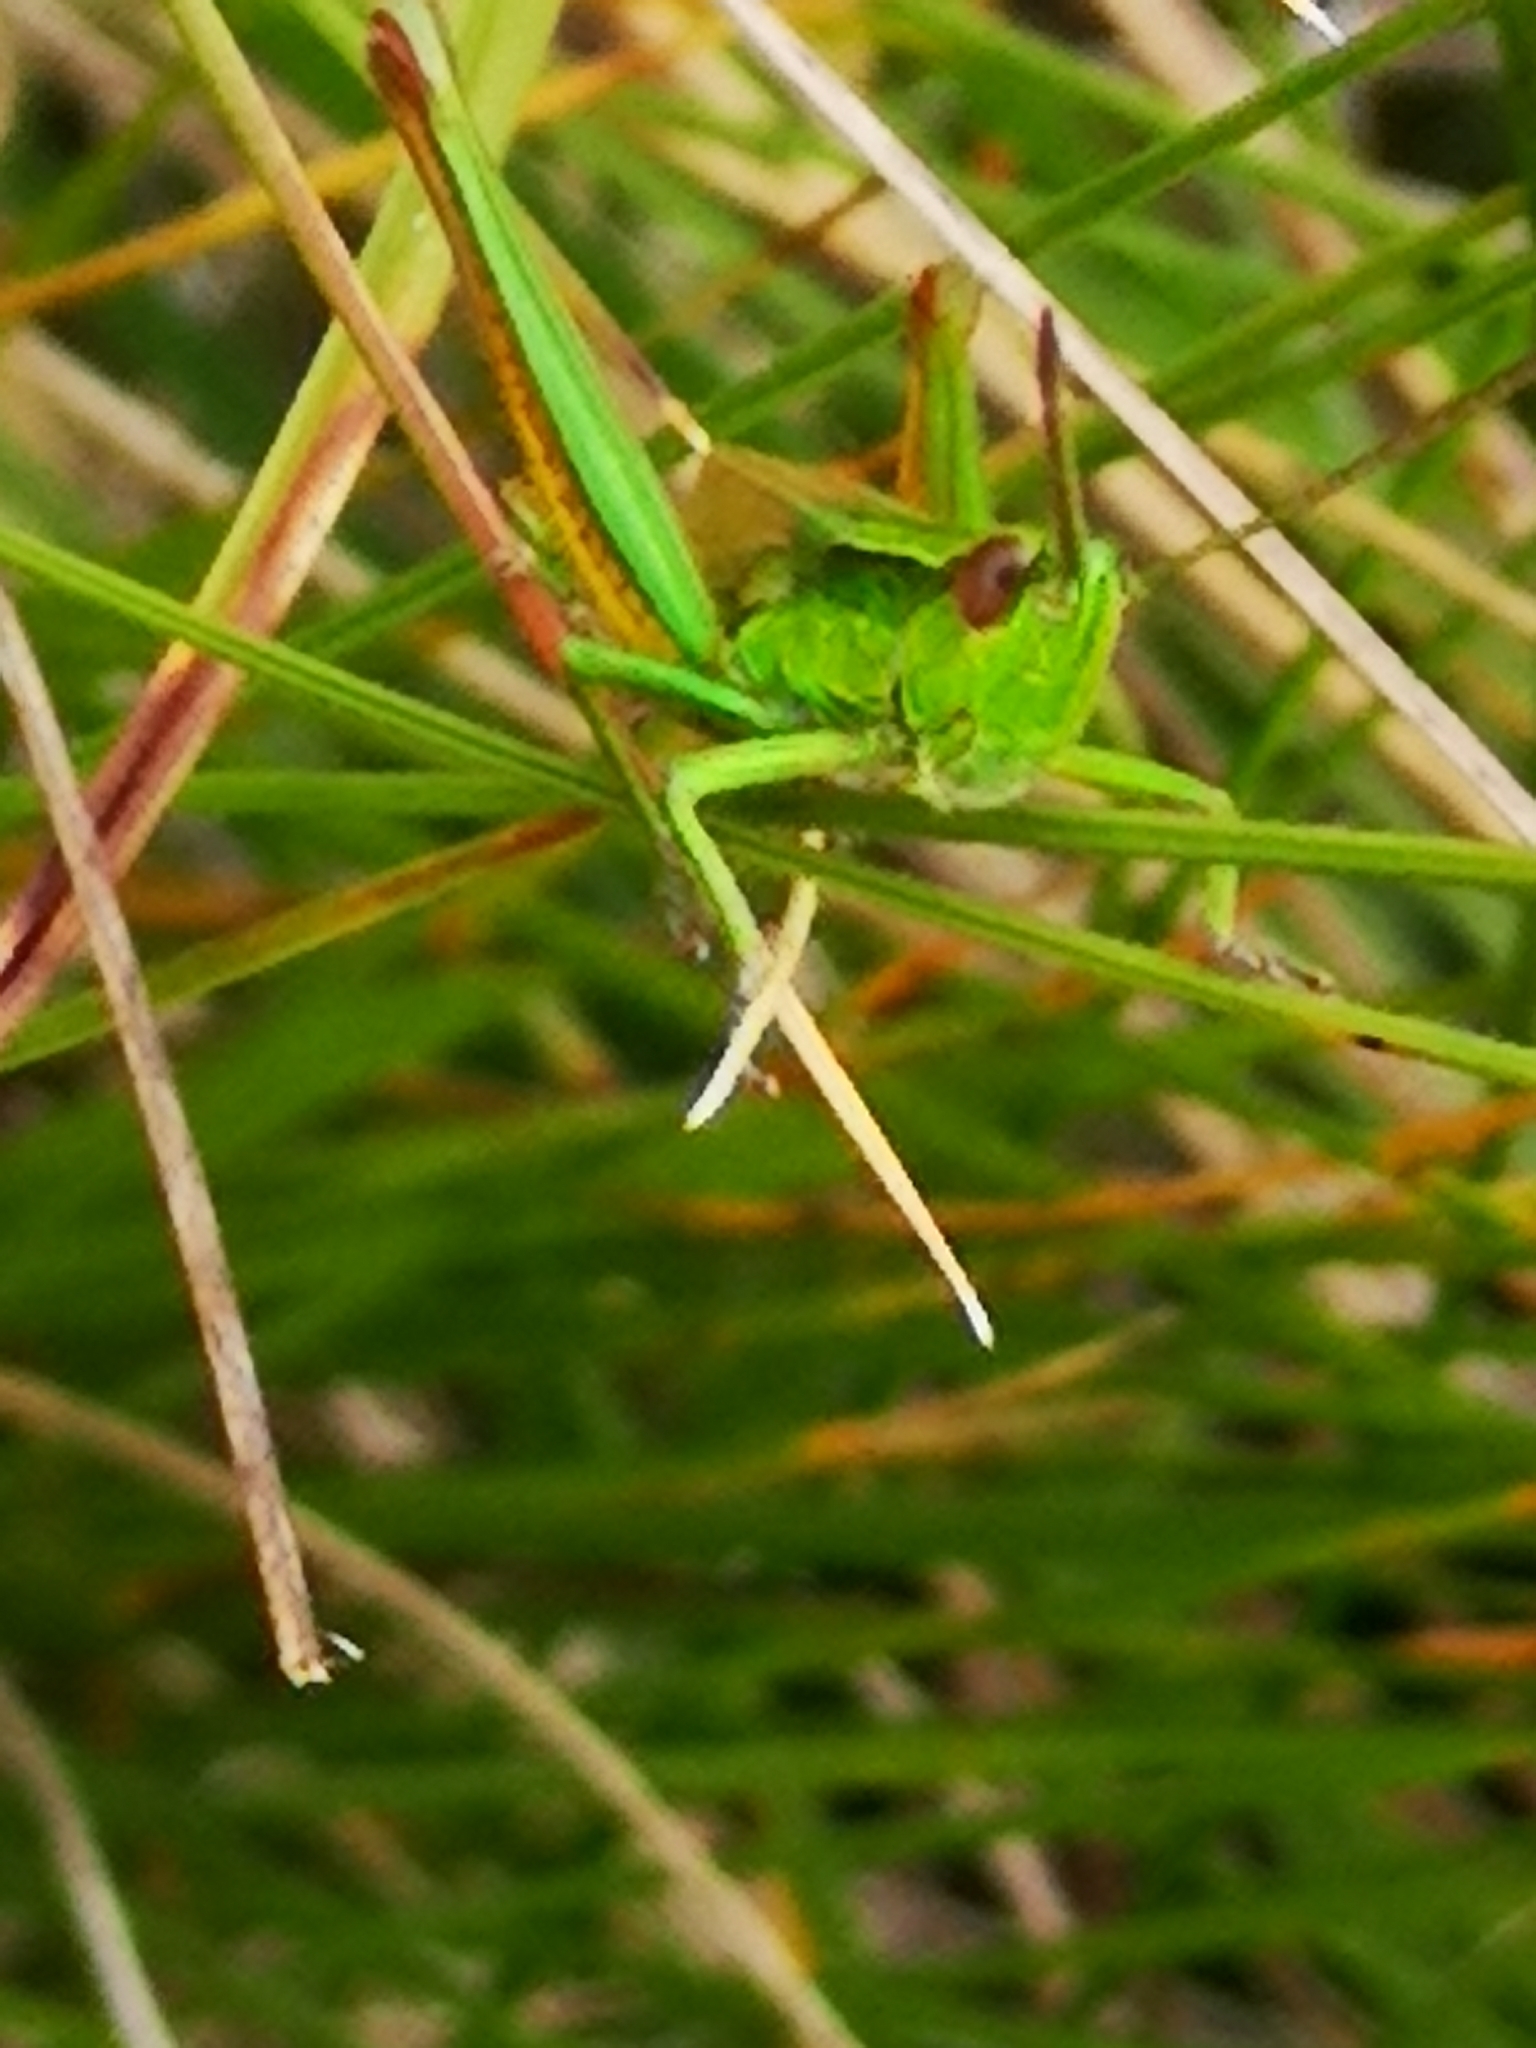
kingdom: Animalia
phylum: Arthropoda
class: Insecta
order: Orthoptera
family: Acrididae
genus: Euthystira
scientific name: Euthystira brachyptera
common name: Small gold grasshopper
